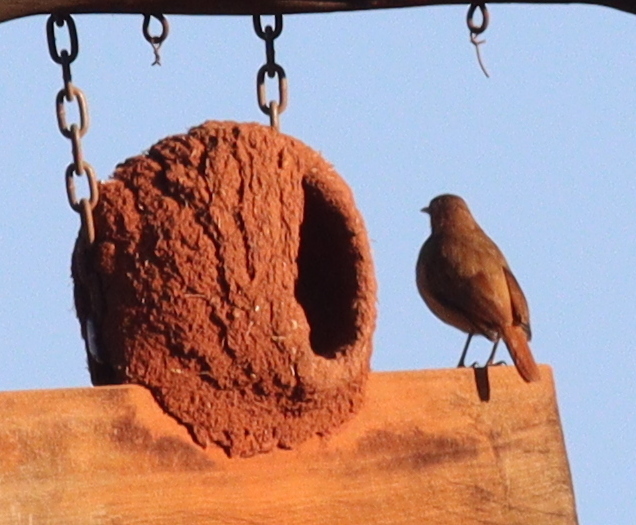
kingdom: Animalia
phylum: Chordata
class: Aves
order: Passeriformes
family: Furnariidae
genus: Furnarius
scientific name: Furnarius rufus
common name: Rufous hornero
